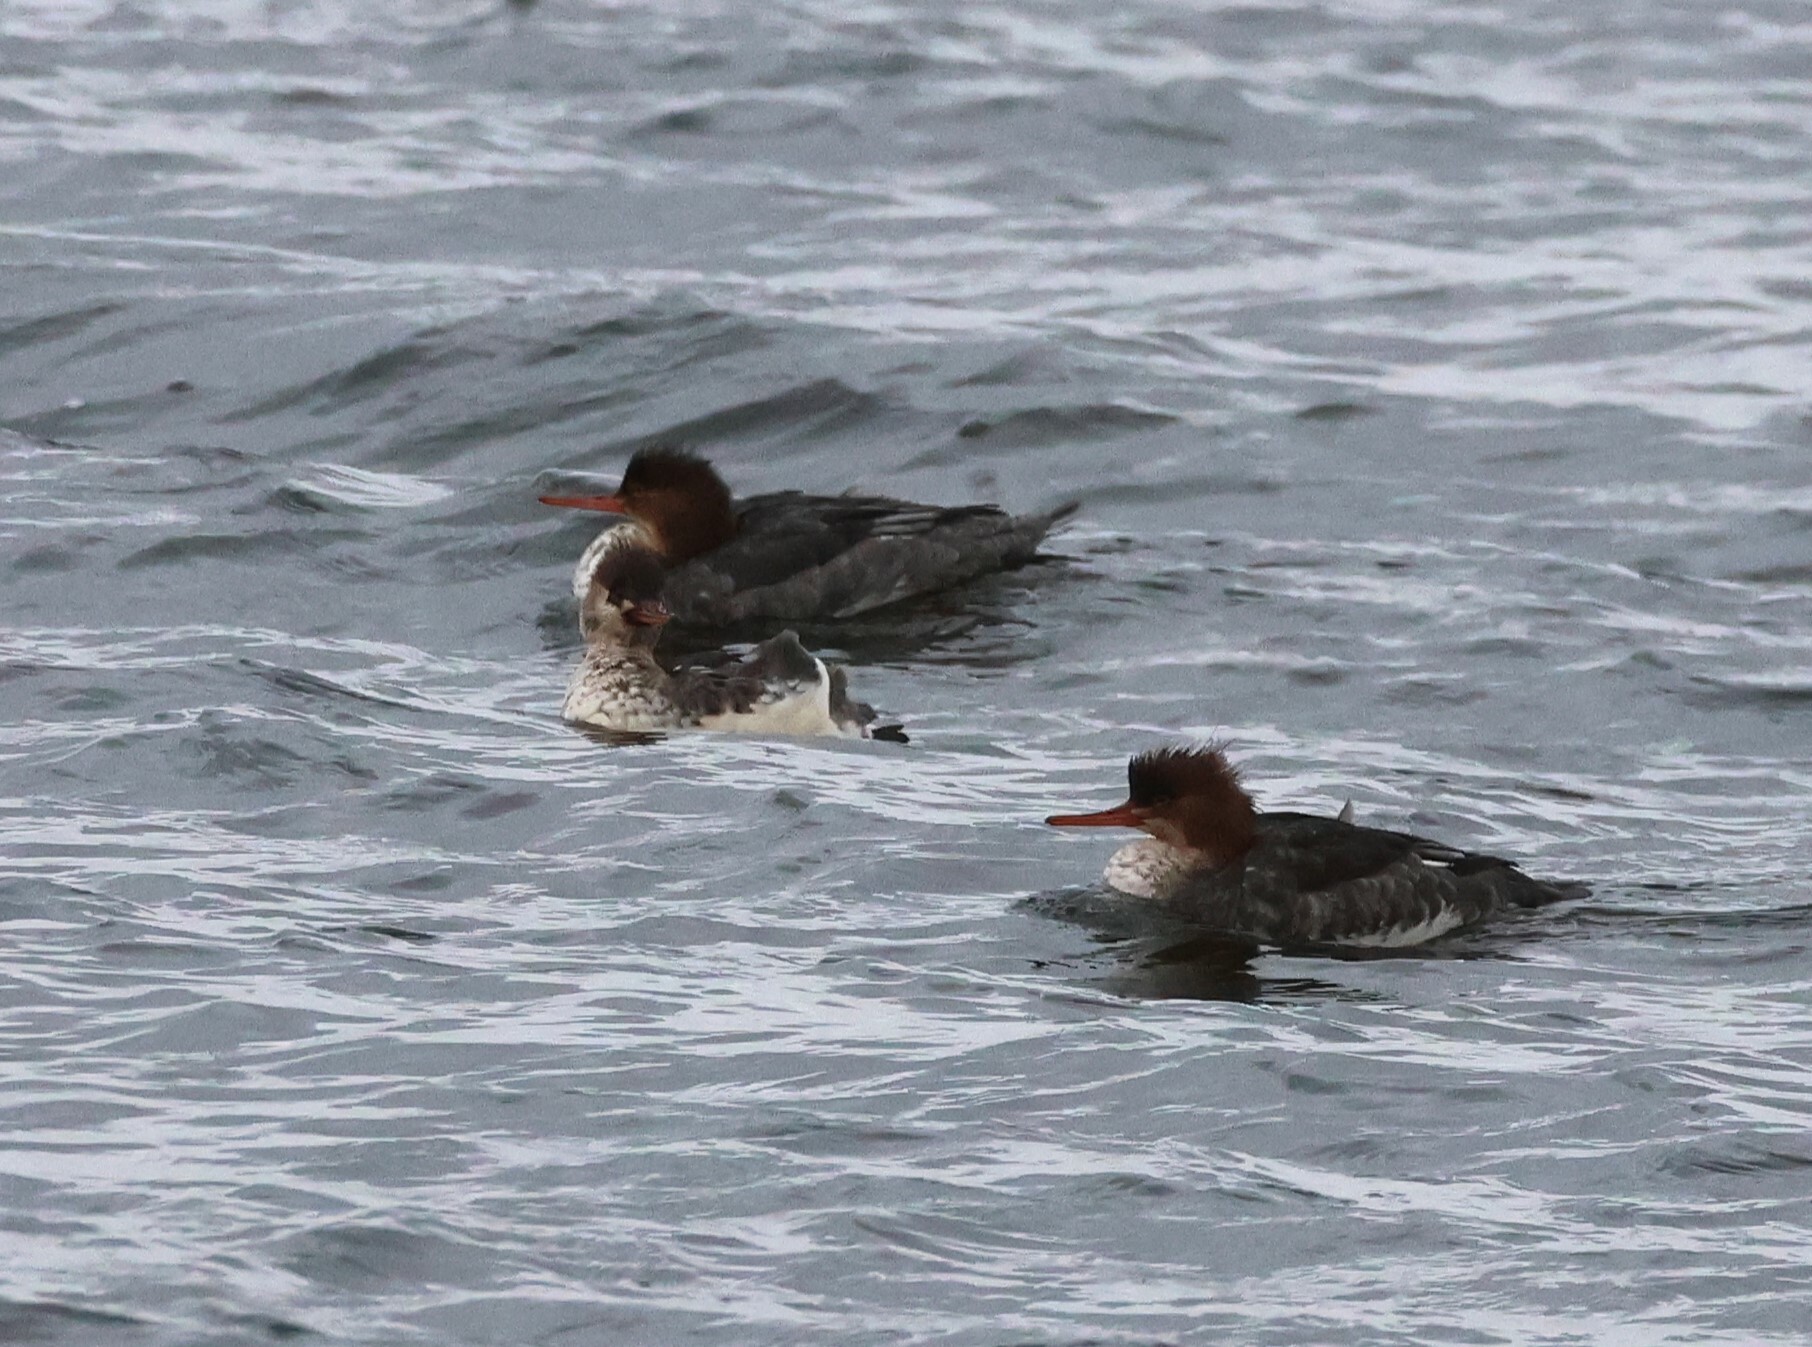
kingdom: Animalia
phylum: Chordata
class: Aves
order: Anseriformes
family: Anatidae
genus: Mergus
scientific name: Mergus serrator
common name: Red-breasted merganser
